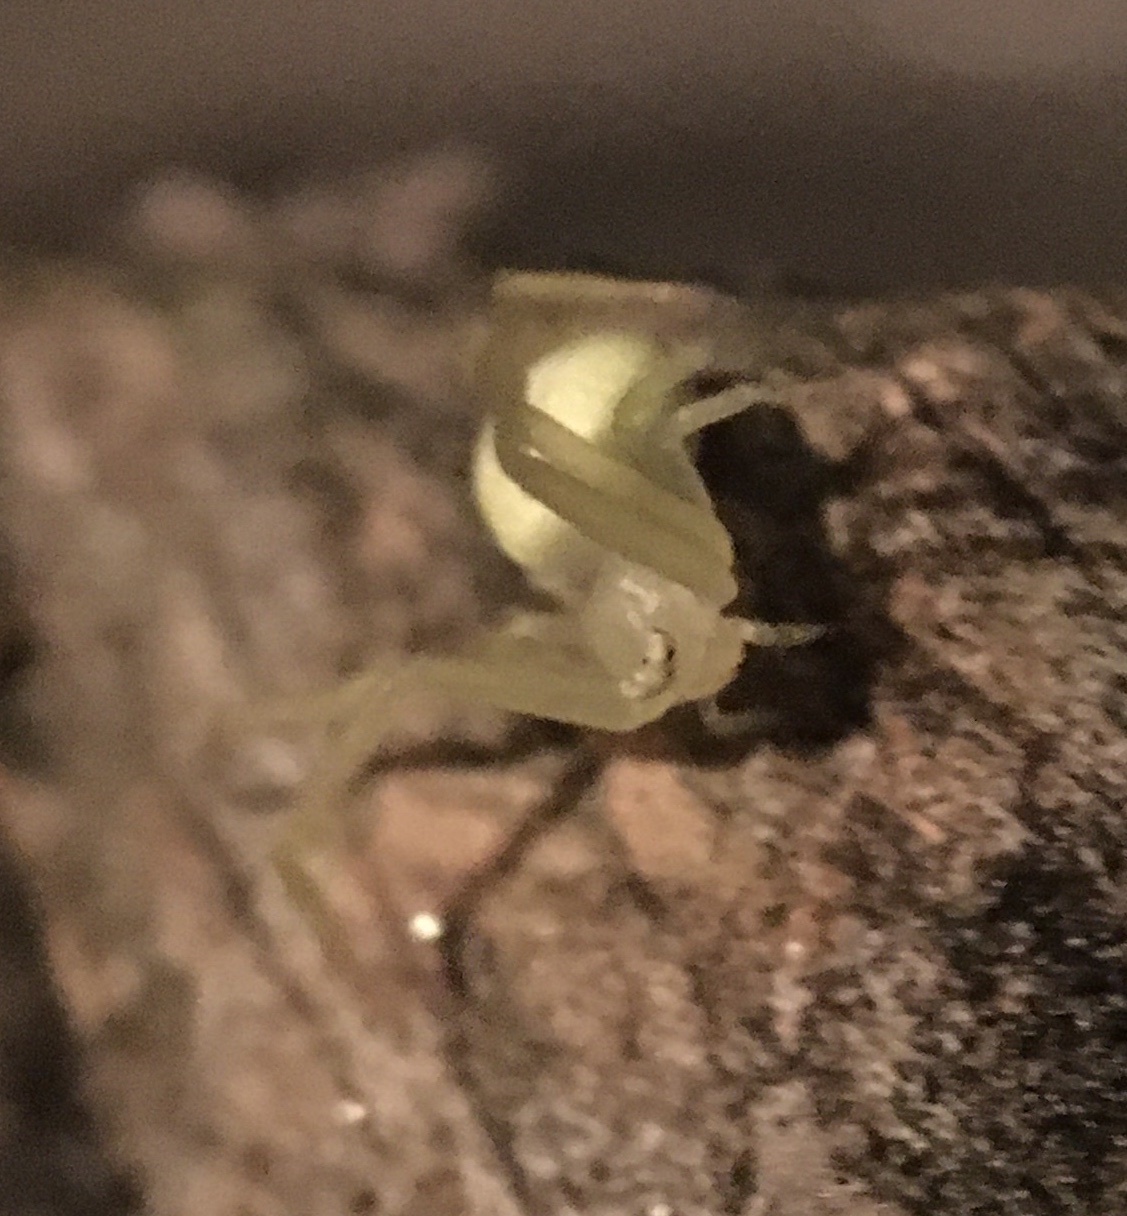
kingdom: Animalia
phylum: Arthropoda
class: Arachnida
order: Araneae
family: Thomisidae
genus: Misumessus
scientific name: Misumessus oblongus
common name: American green crab spider
